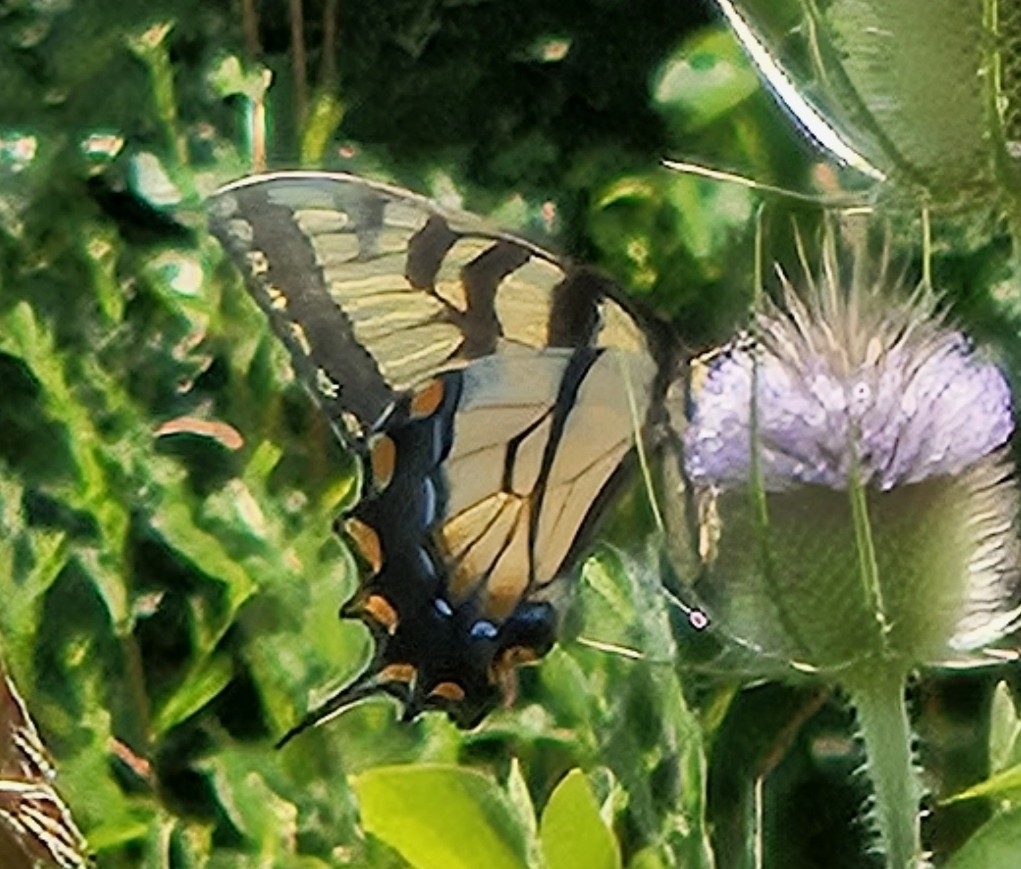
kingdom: Animalia
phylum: Arthropoda
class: Insecta
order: Lepidoptera
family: Papilionidae
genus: Papilio
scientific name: Papilio glaucus
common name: Tiger swallowtail
